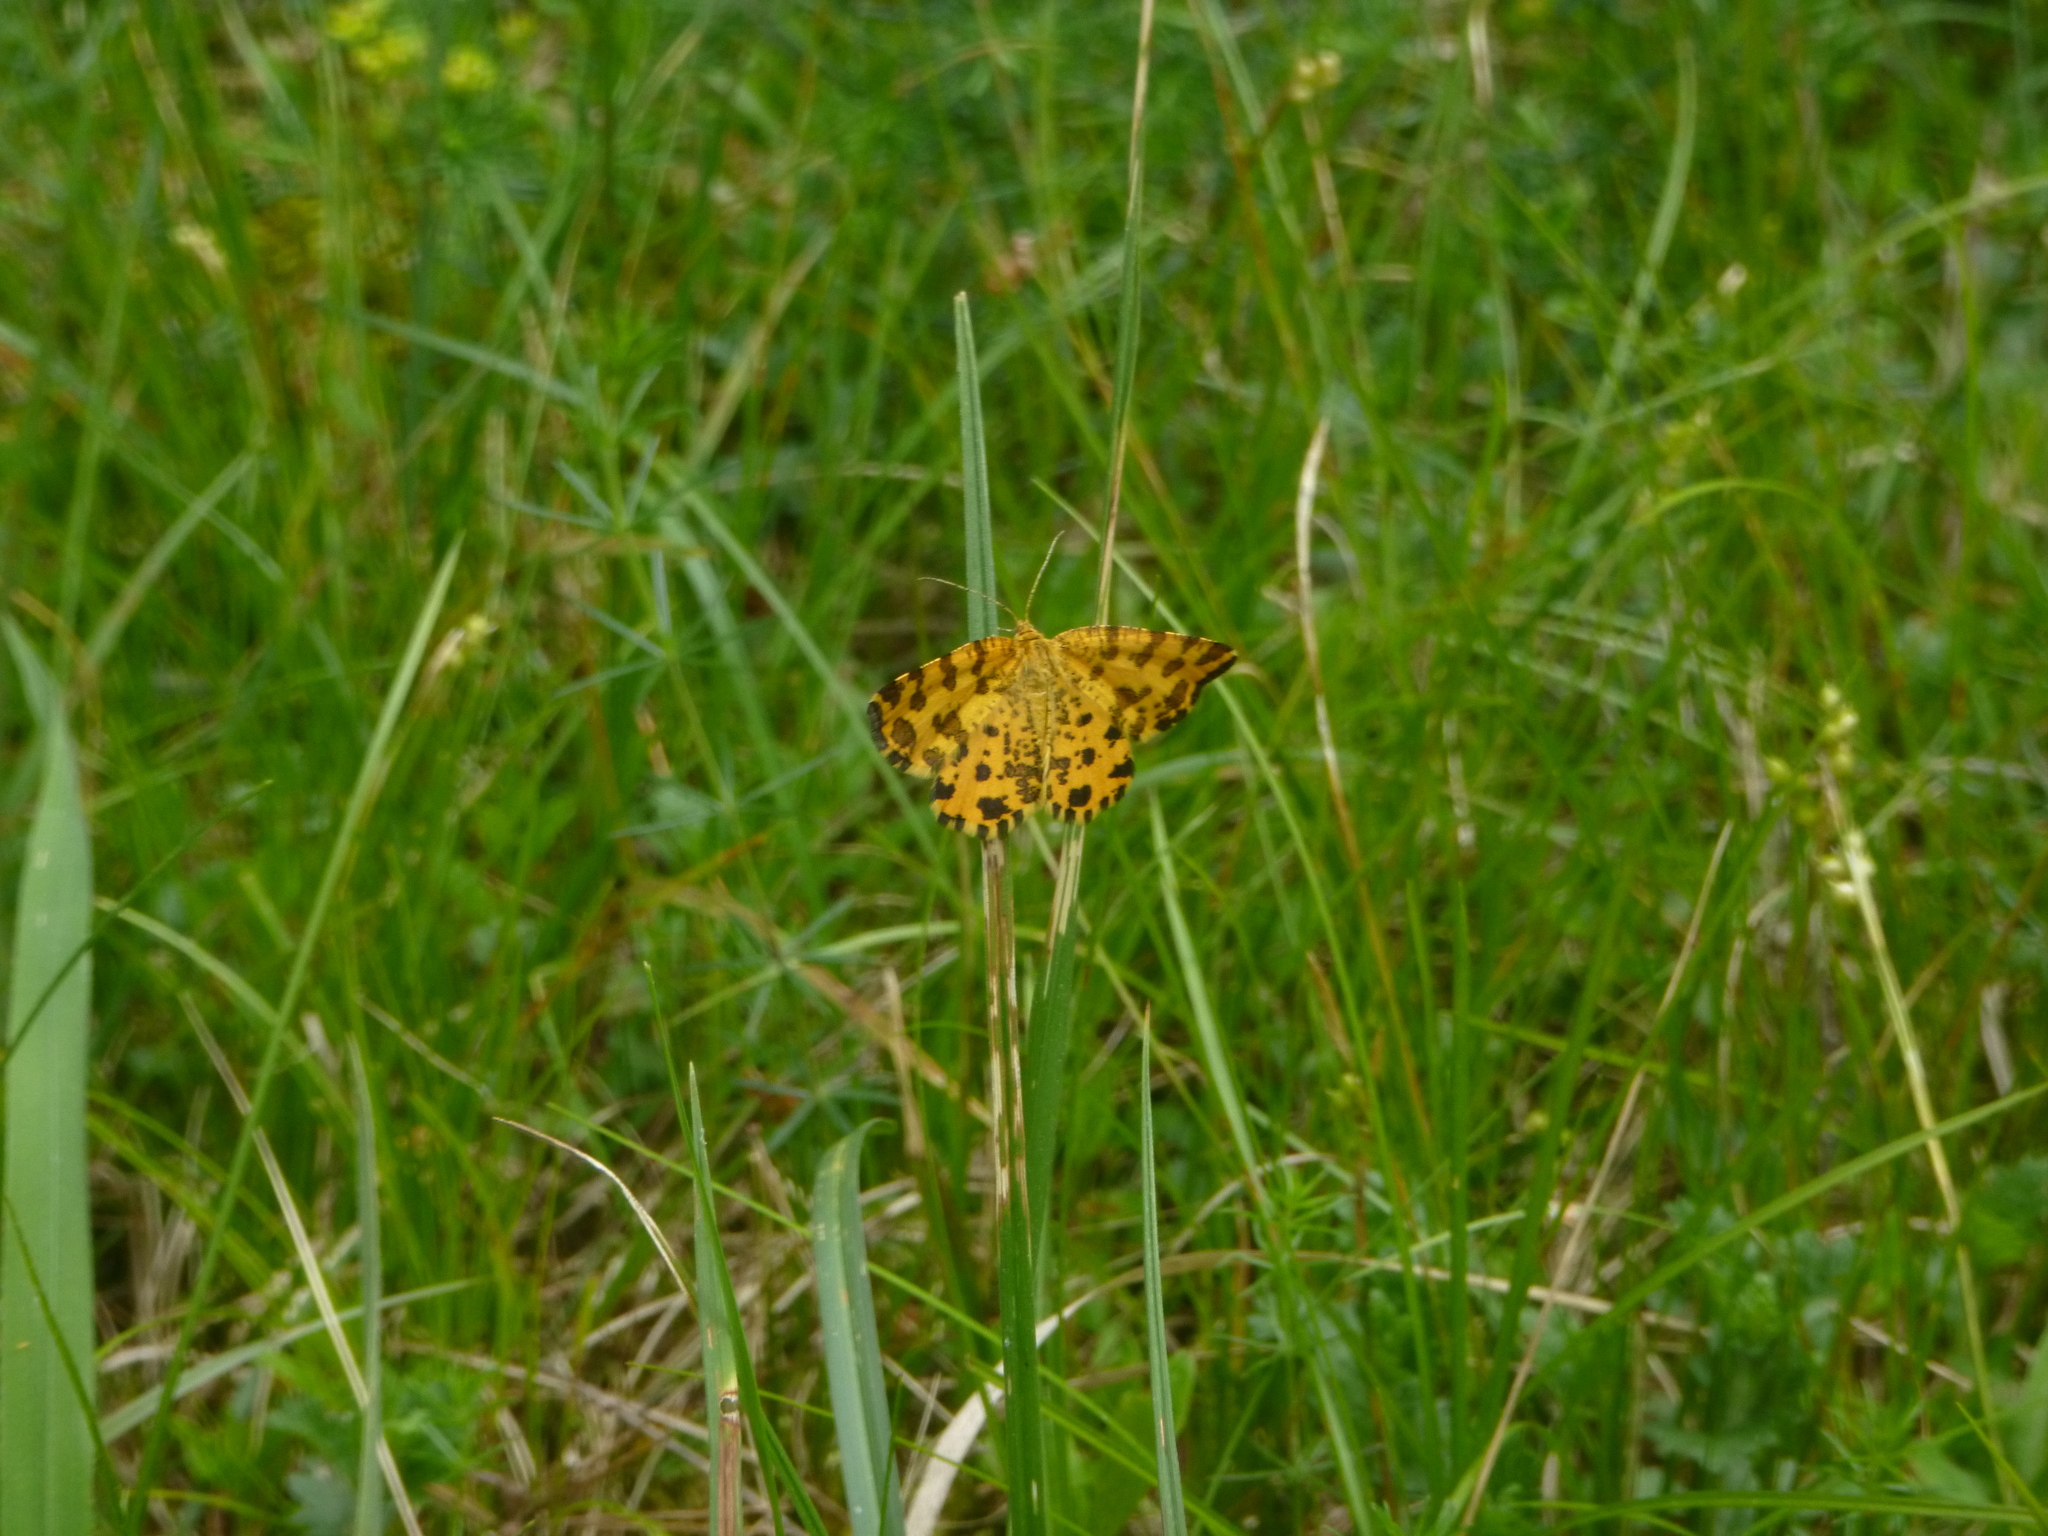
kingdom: Animalia
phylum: Arthropoda
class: Insecta
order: Lepidoptera
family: Geometridae
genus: Pseudopanthera
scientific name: Pseudopanthera macularia
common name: Speckled yellow
